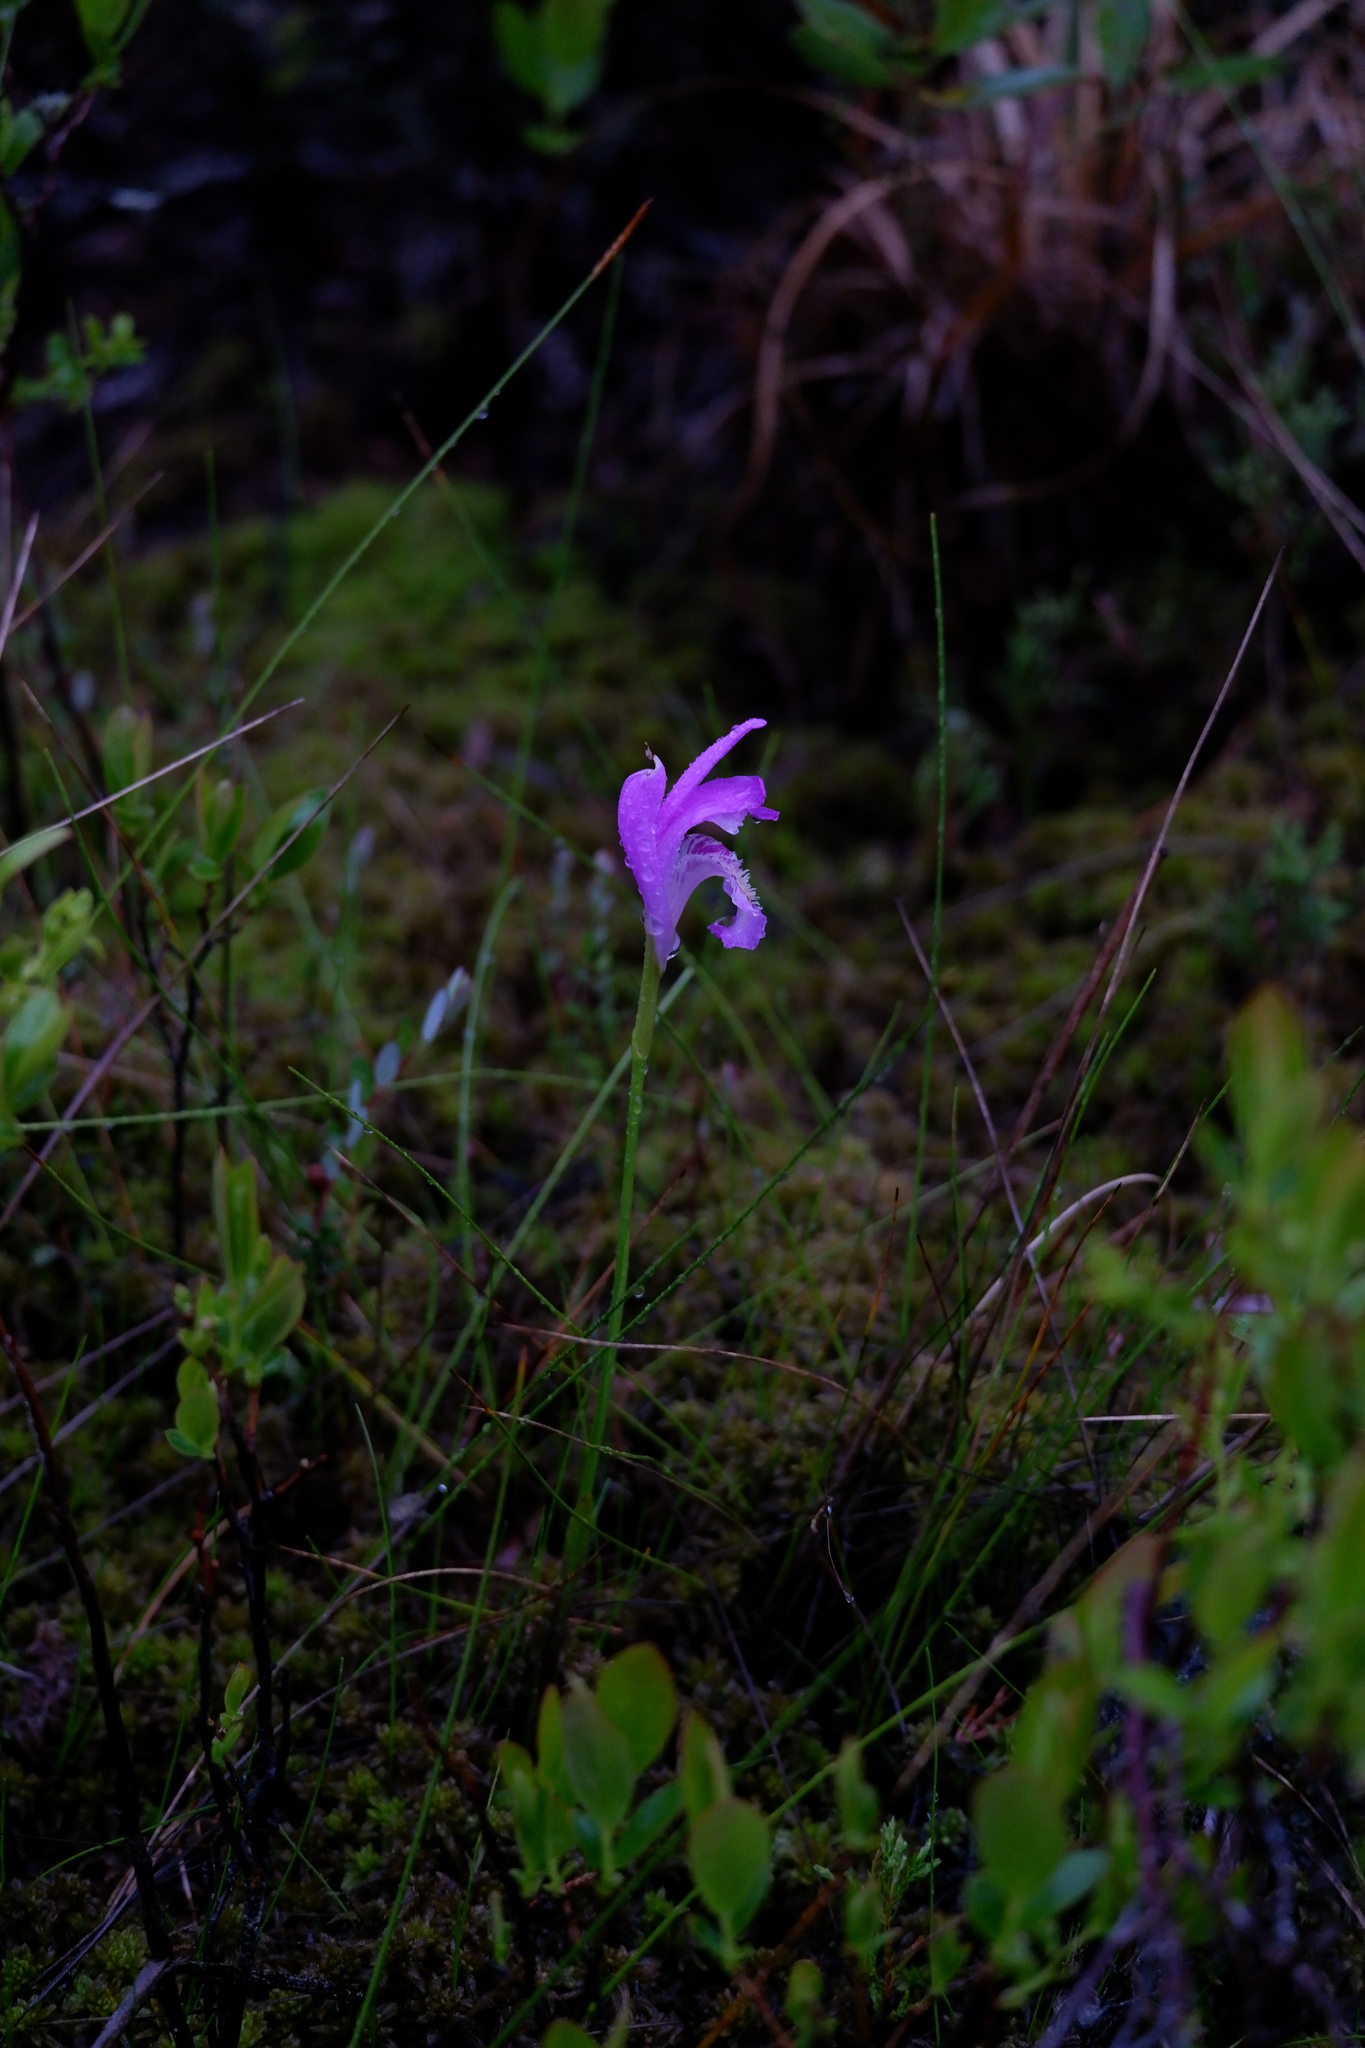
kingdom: Plantae
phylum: Tracheophyta
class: Liliopsida
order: Asparagales
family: Orchidaceae
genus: Arethusa
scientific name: Arethusa bulbosa
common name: Arethusa
